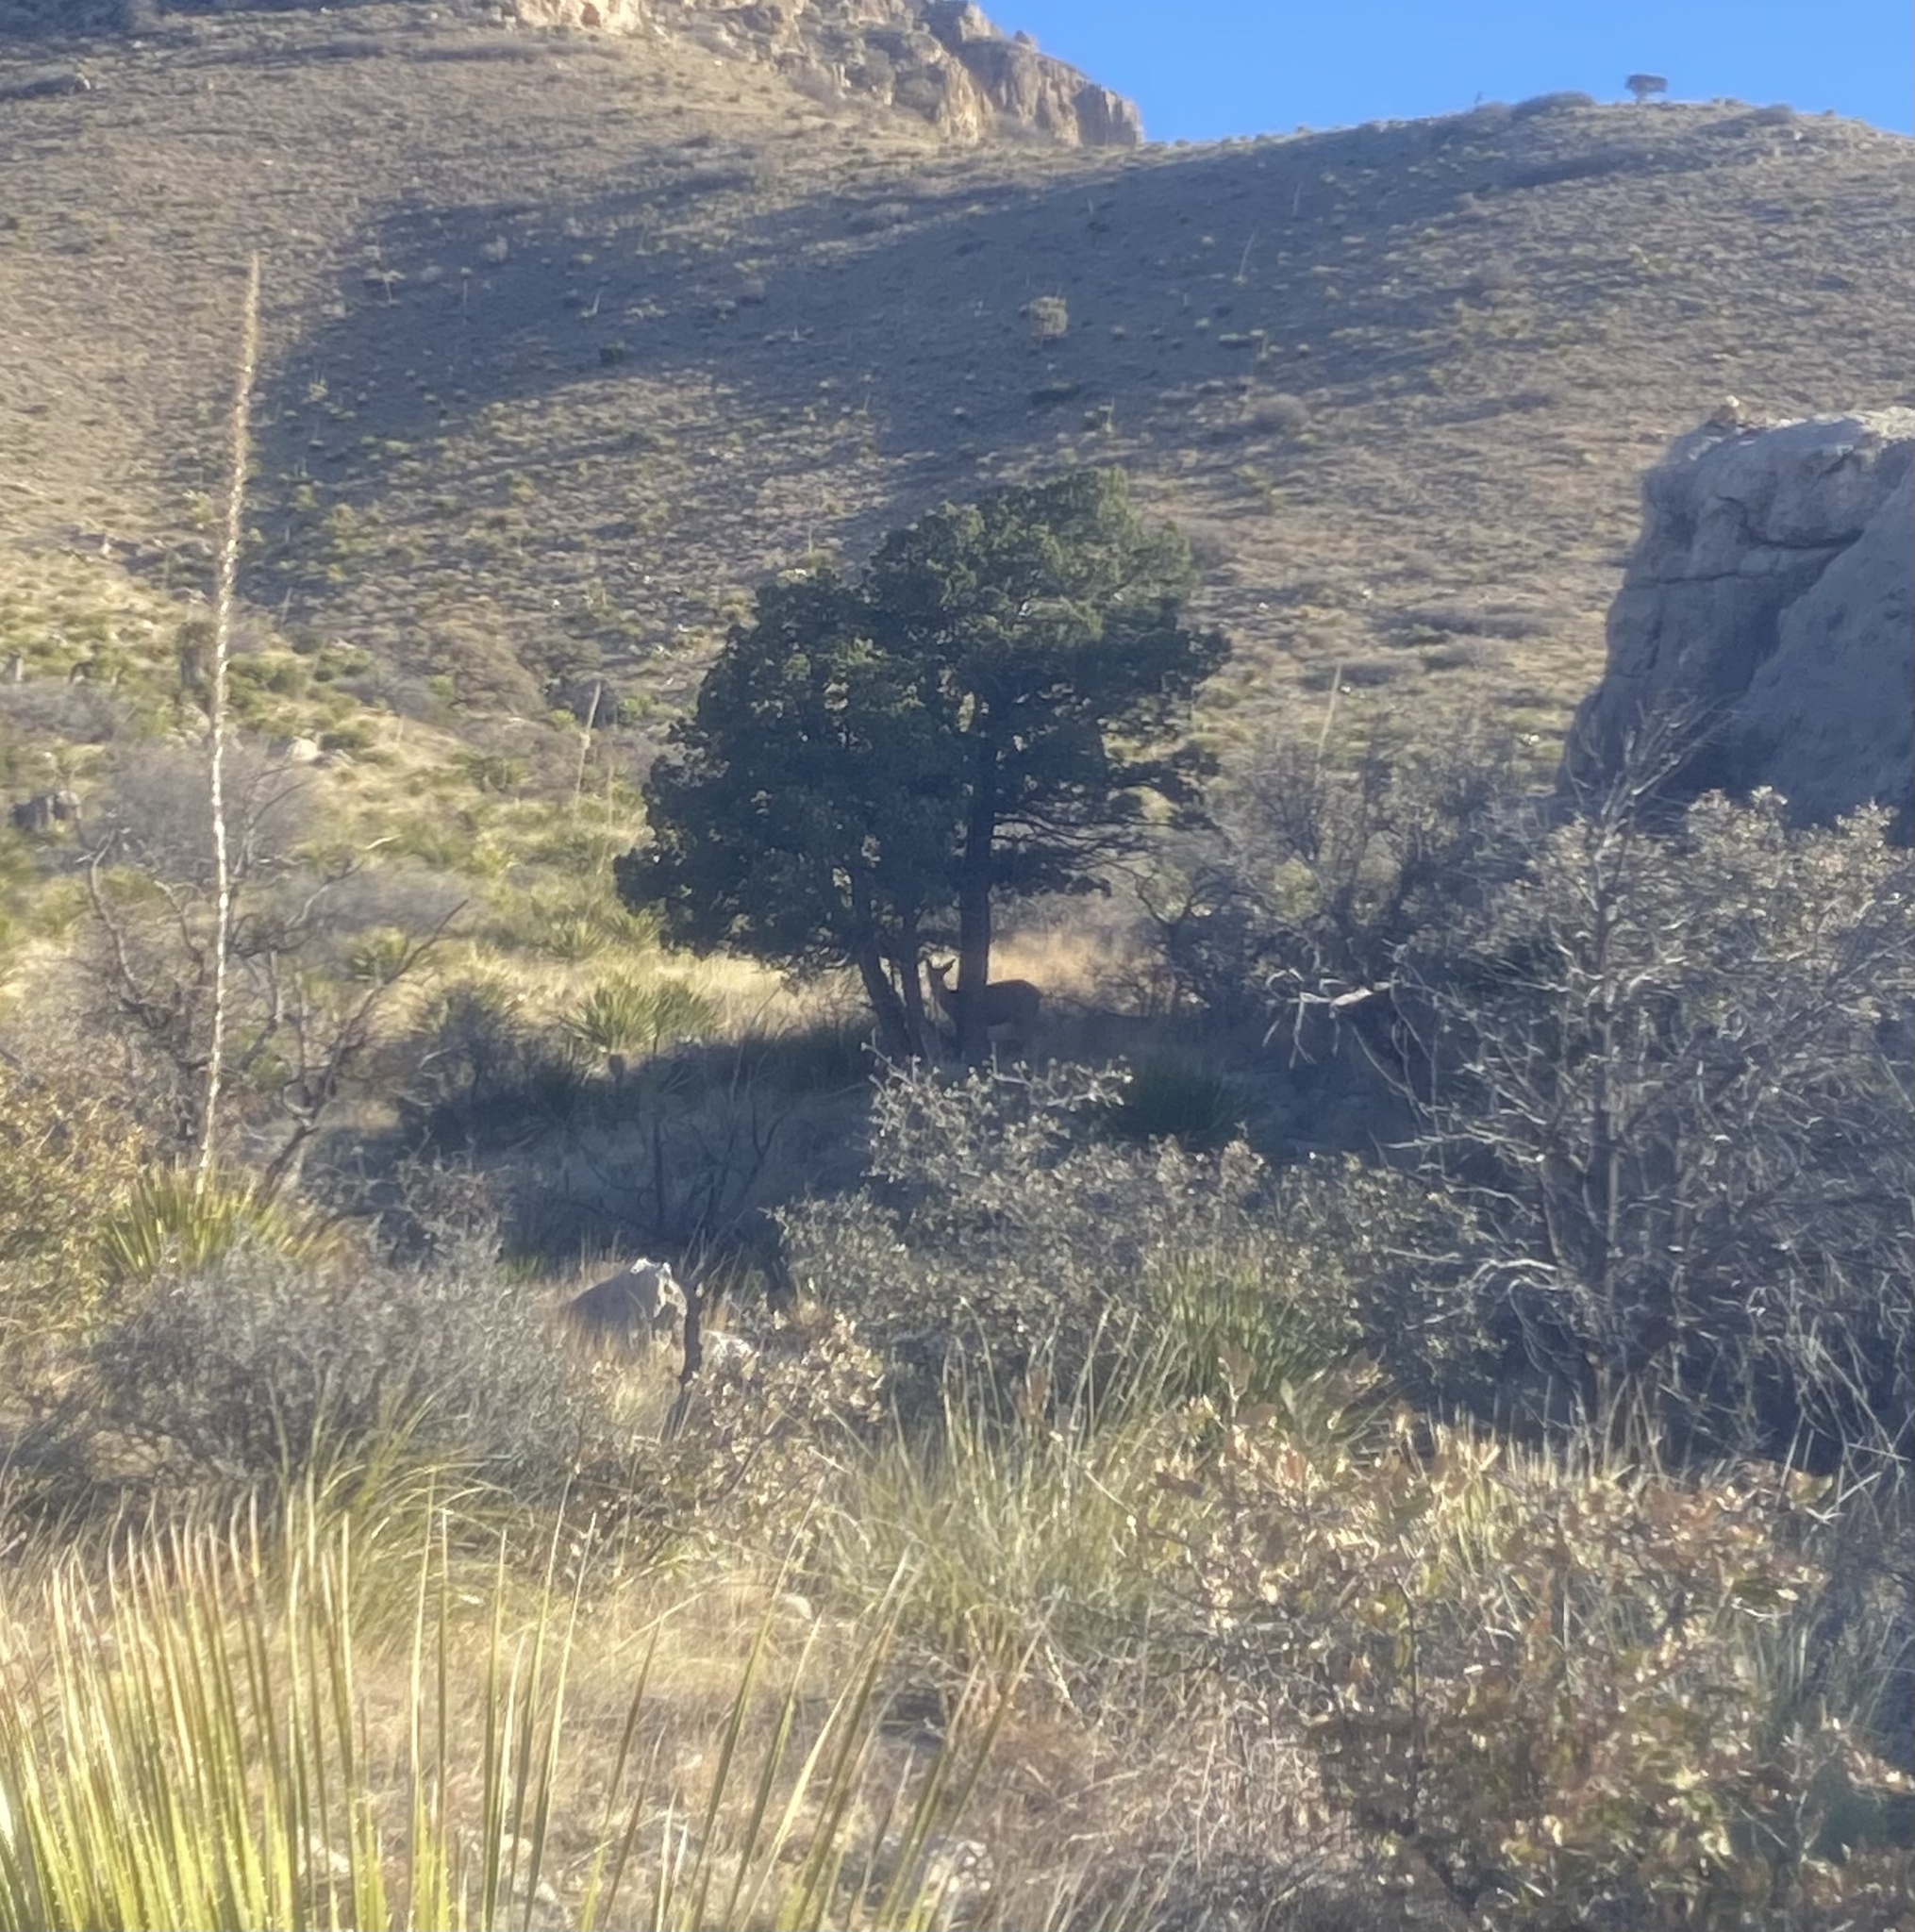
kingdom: Animalia
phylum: Chordata
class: Mammalia
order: Artiodactyla
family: Cervidae
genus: Odocoileus
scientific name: Odocoileus hemionus
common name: Mule deer
